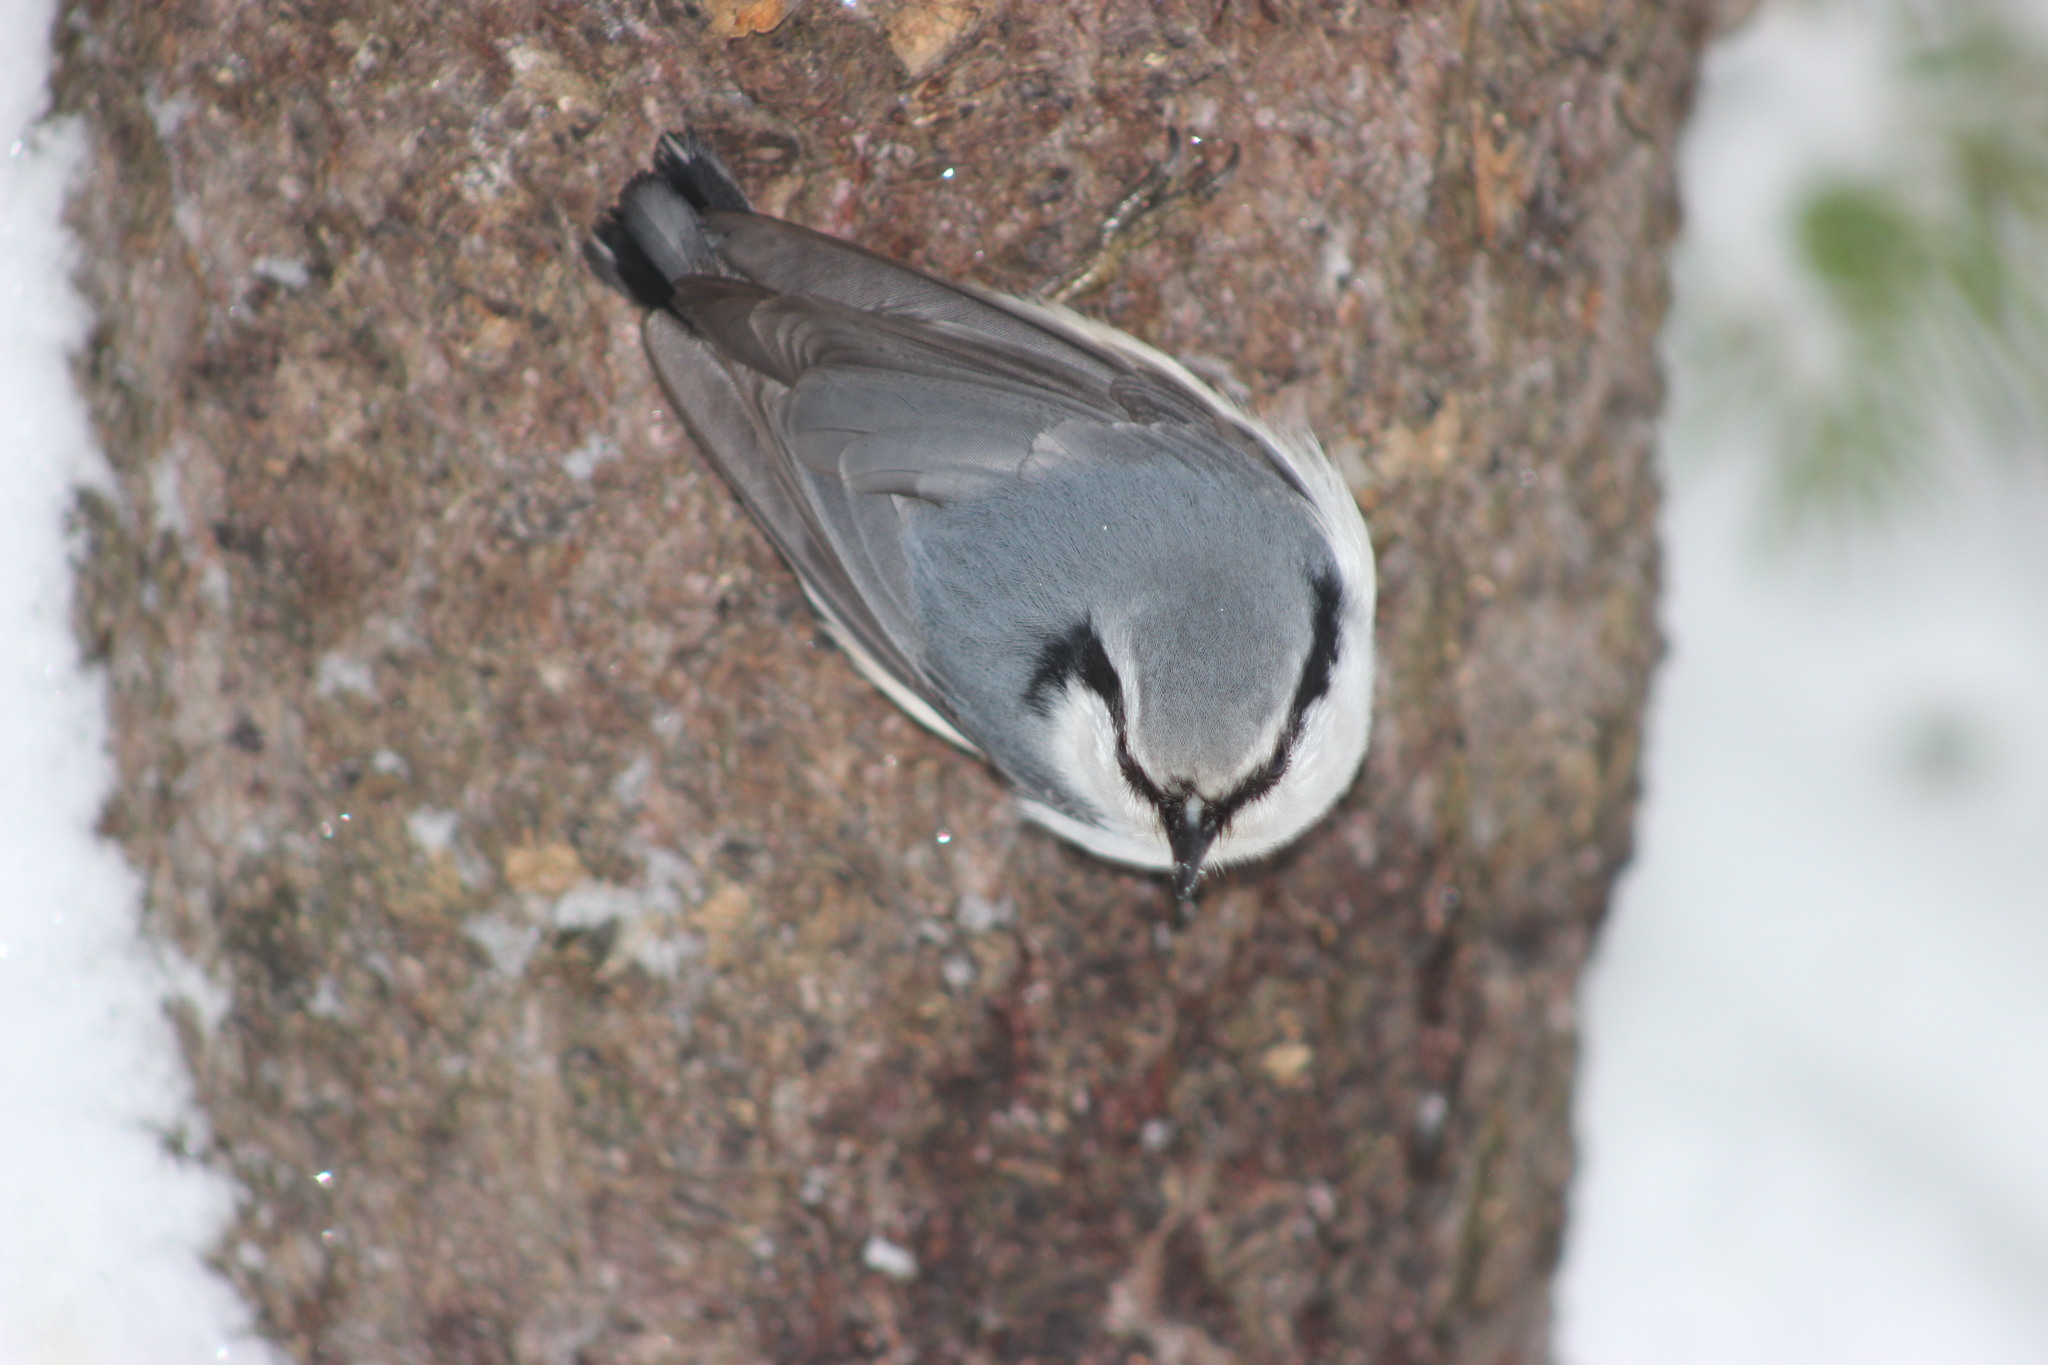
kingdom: Animalia
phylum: Chordata
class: Aves
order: Passeriformes
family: Sittidae
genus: Sitta
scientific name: Sitta europaea
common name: Eurasian nuthatch
